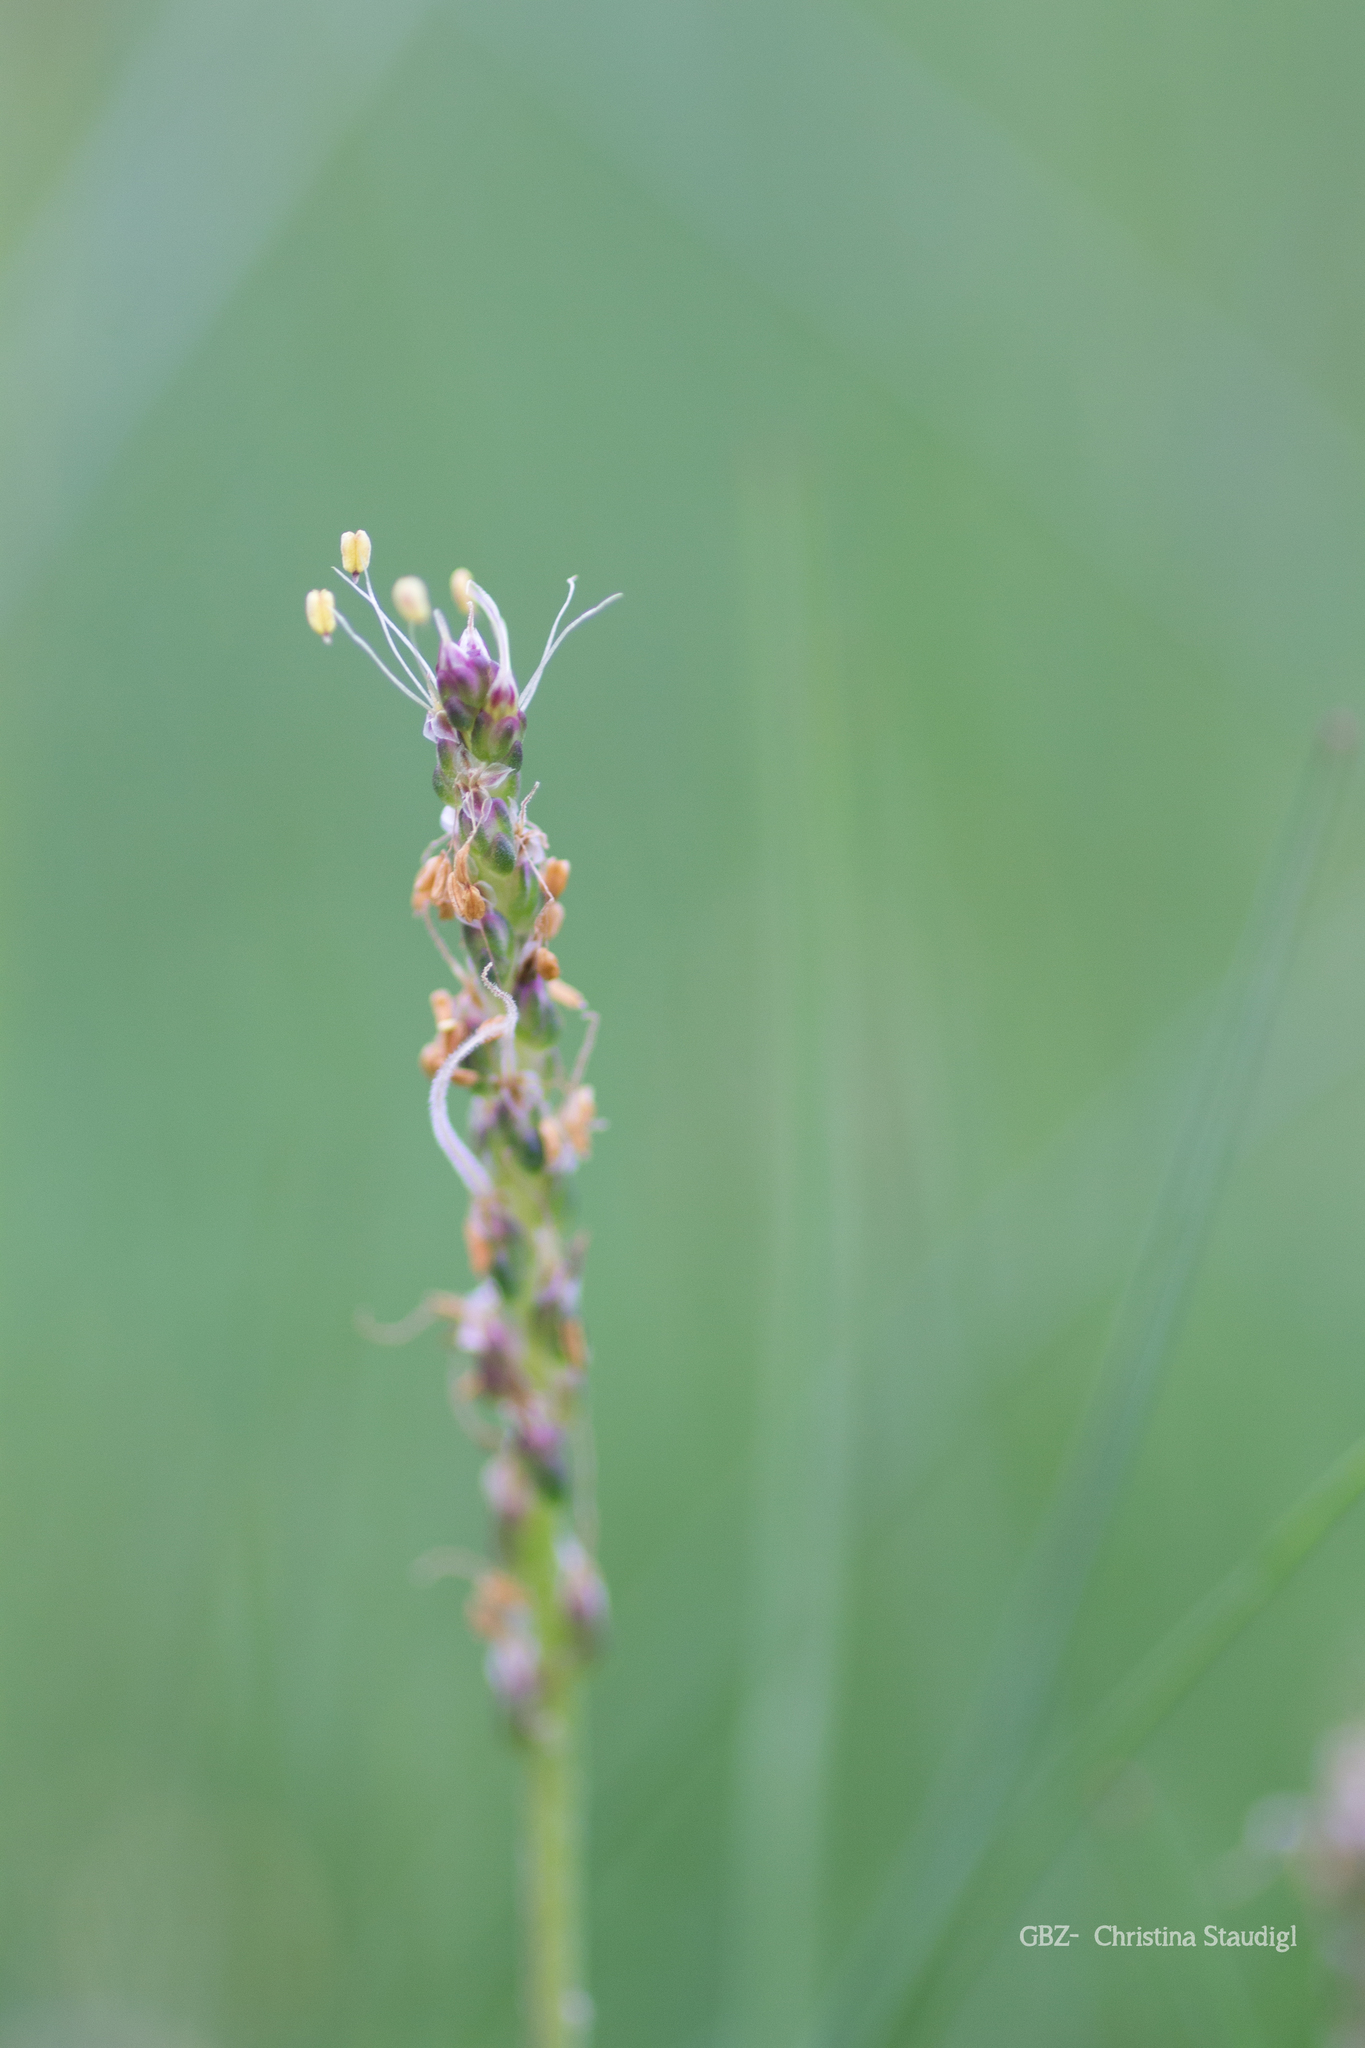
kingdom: Plantae
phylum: Tracheophyta
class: Magnoliopsida
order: Lamiales
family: Plantaginaceae
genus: Plantago
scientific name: Plantago maritima
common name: Sea plantain
